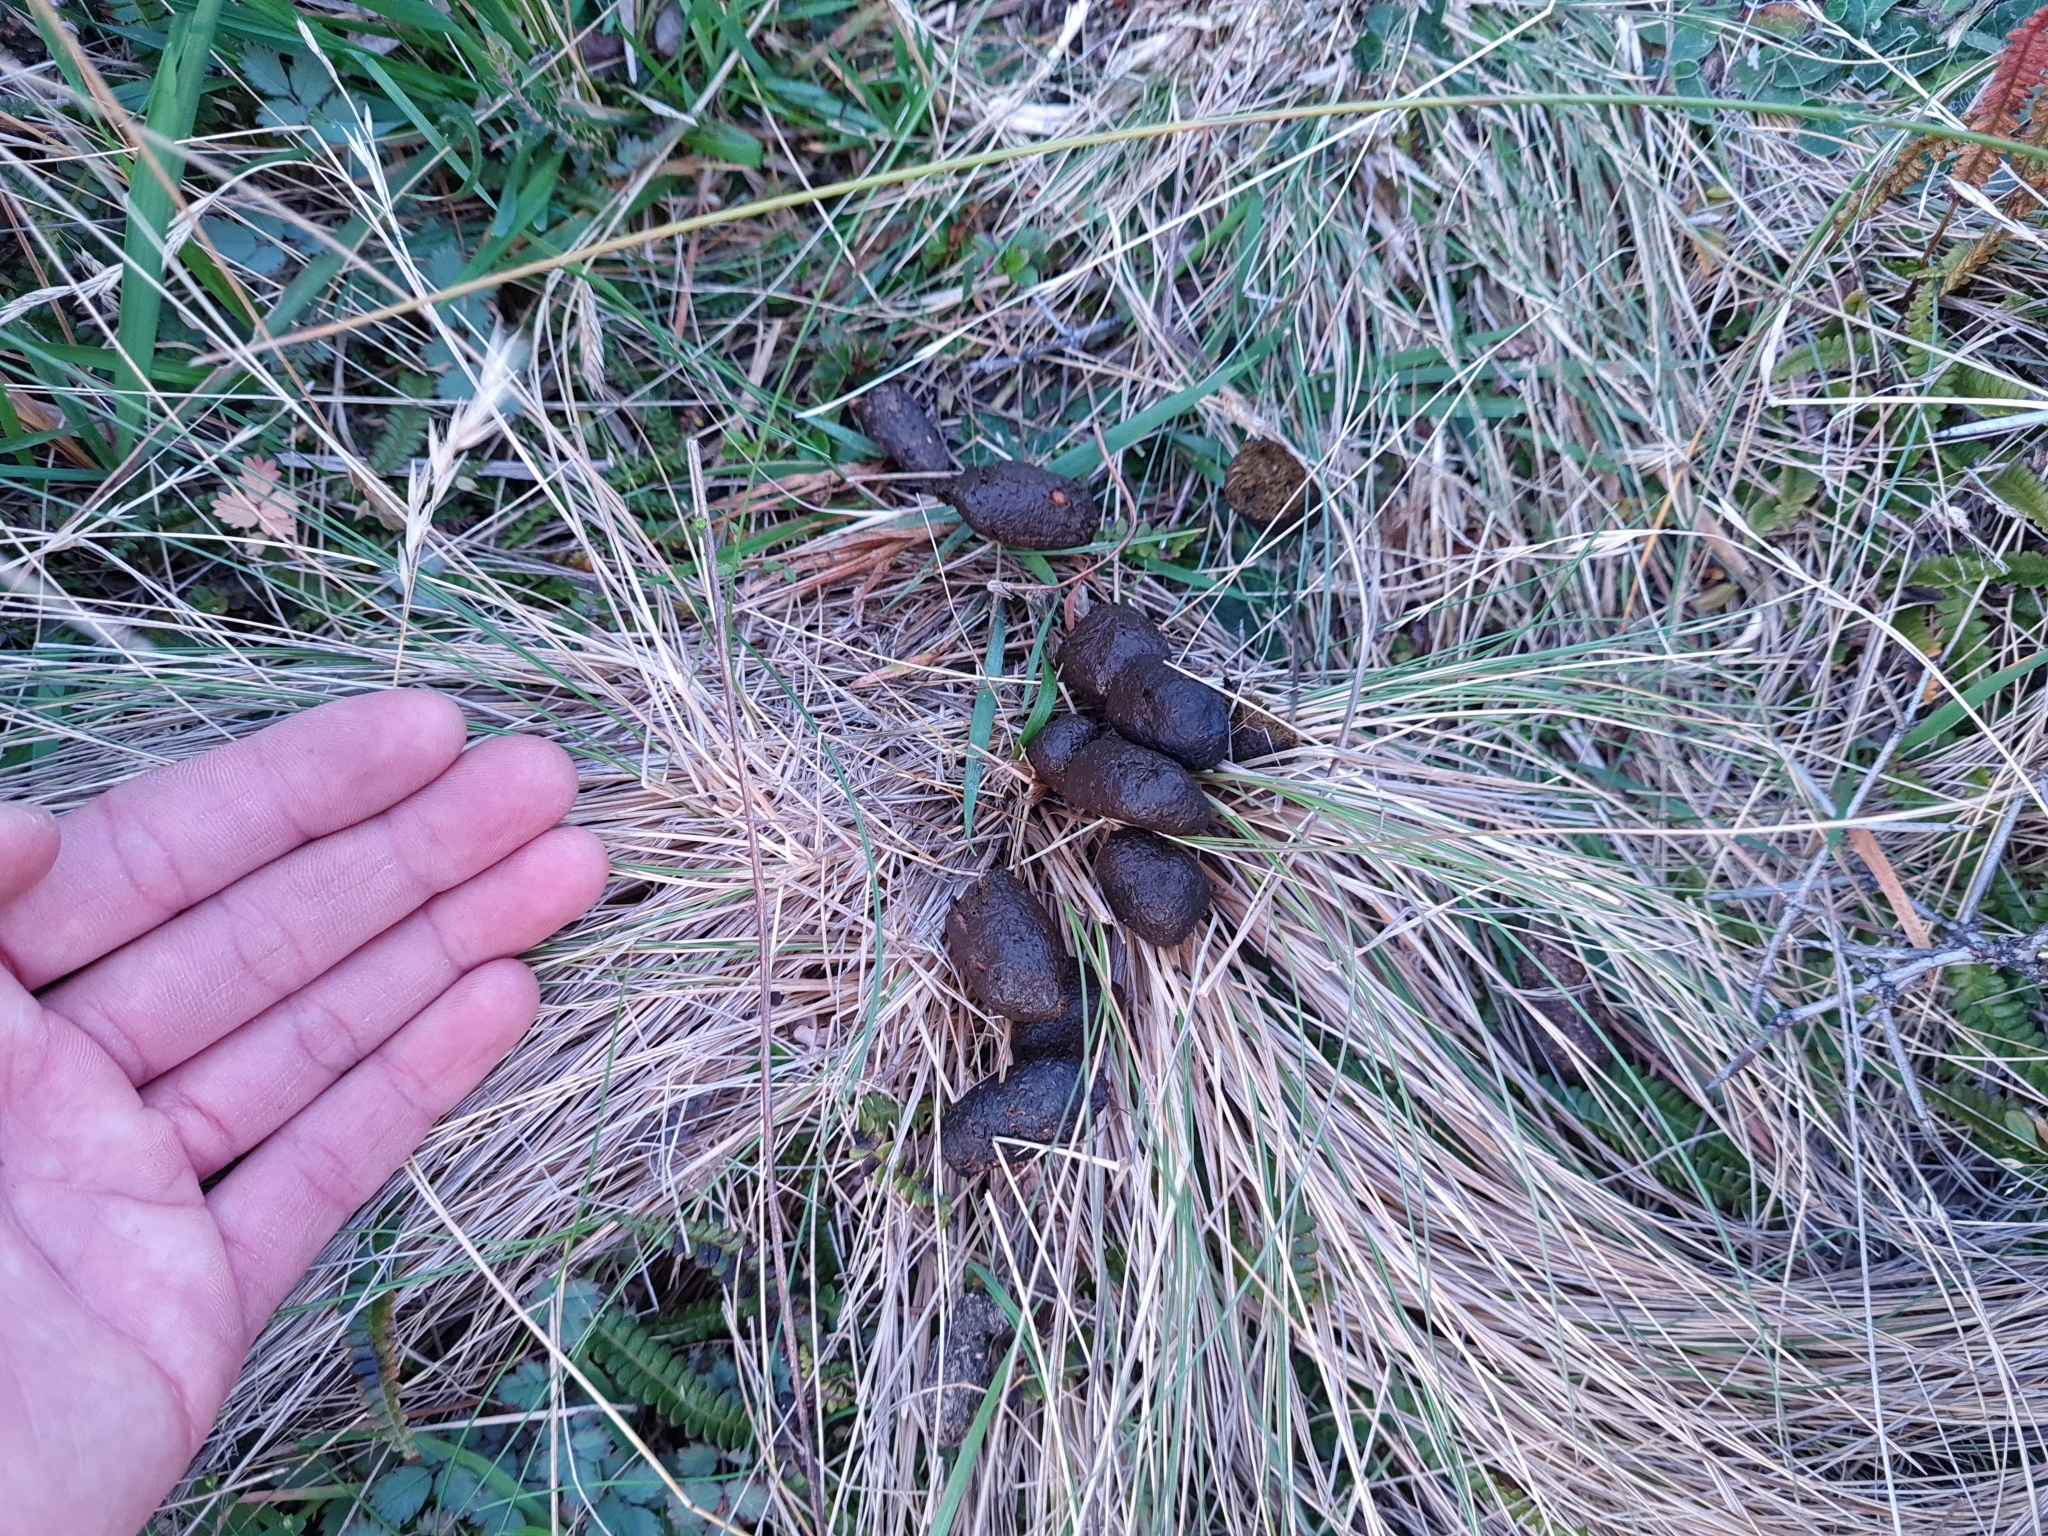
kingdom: Animalia
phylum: Chordata
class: Mammalia
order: Diprotodontia
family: Macropodidae
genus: Notamacropus
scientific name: Notamacropus rufogriseus
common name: Red-necked wallaby
